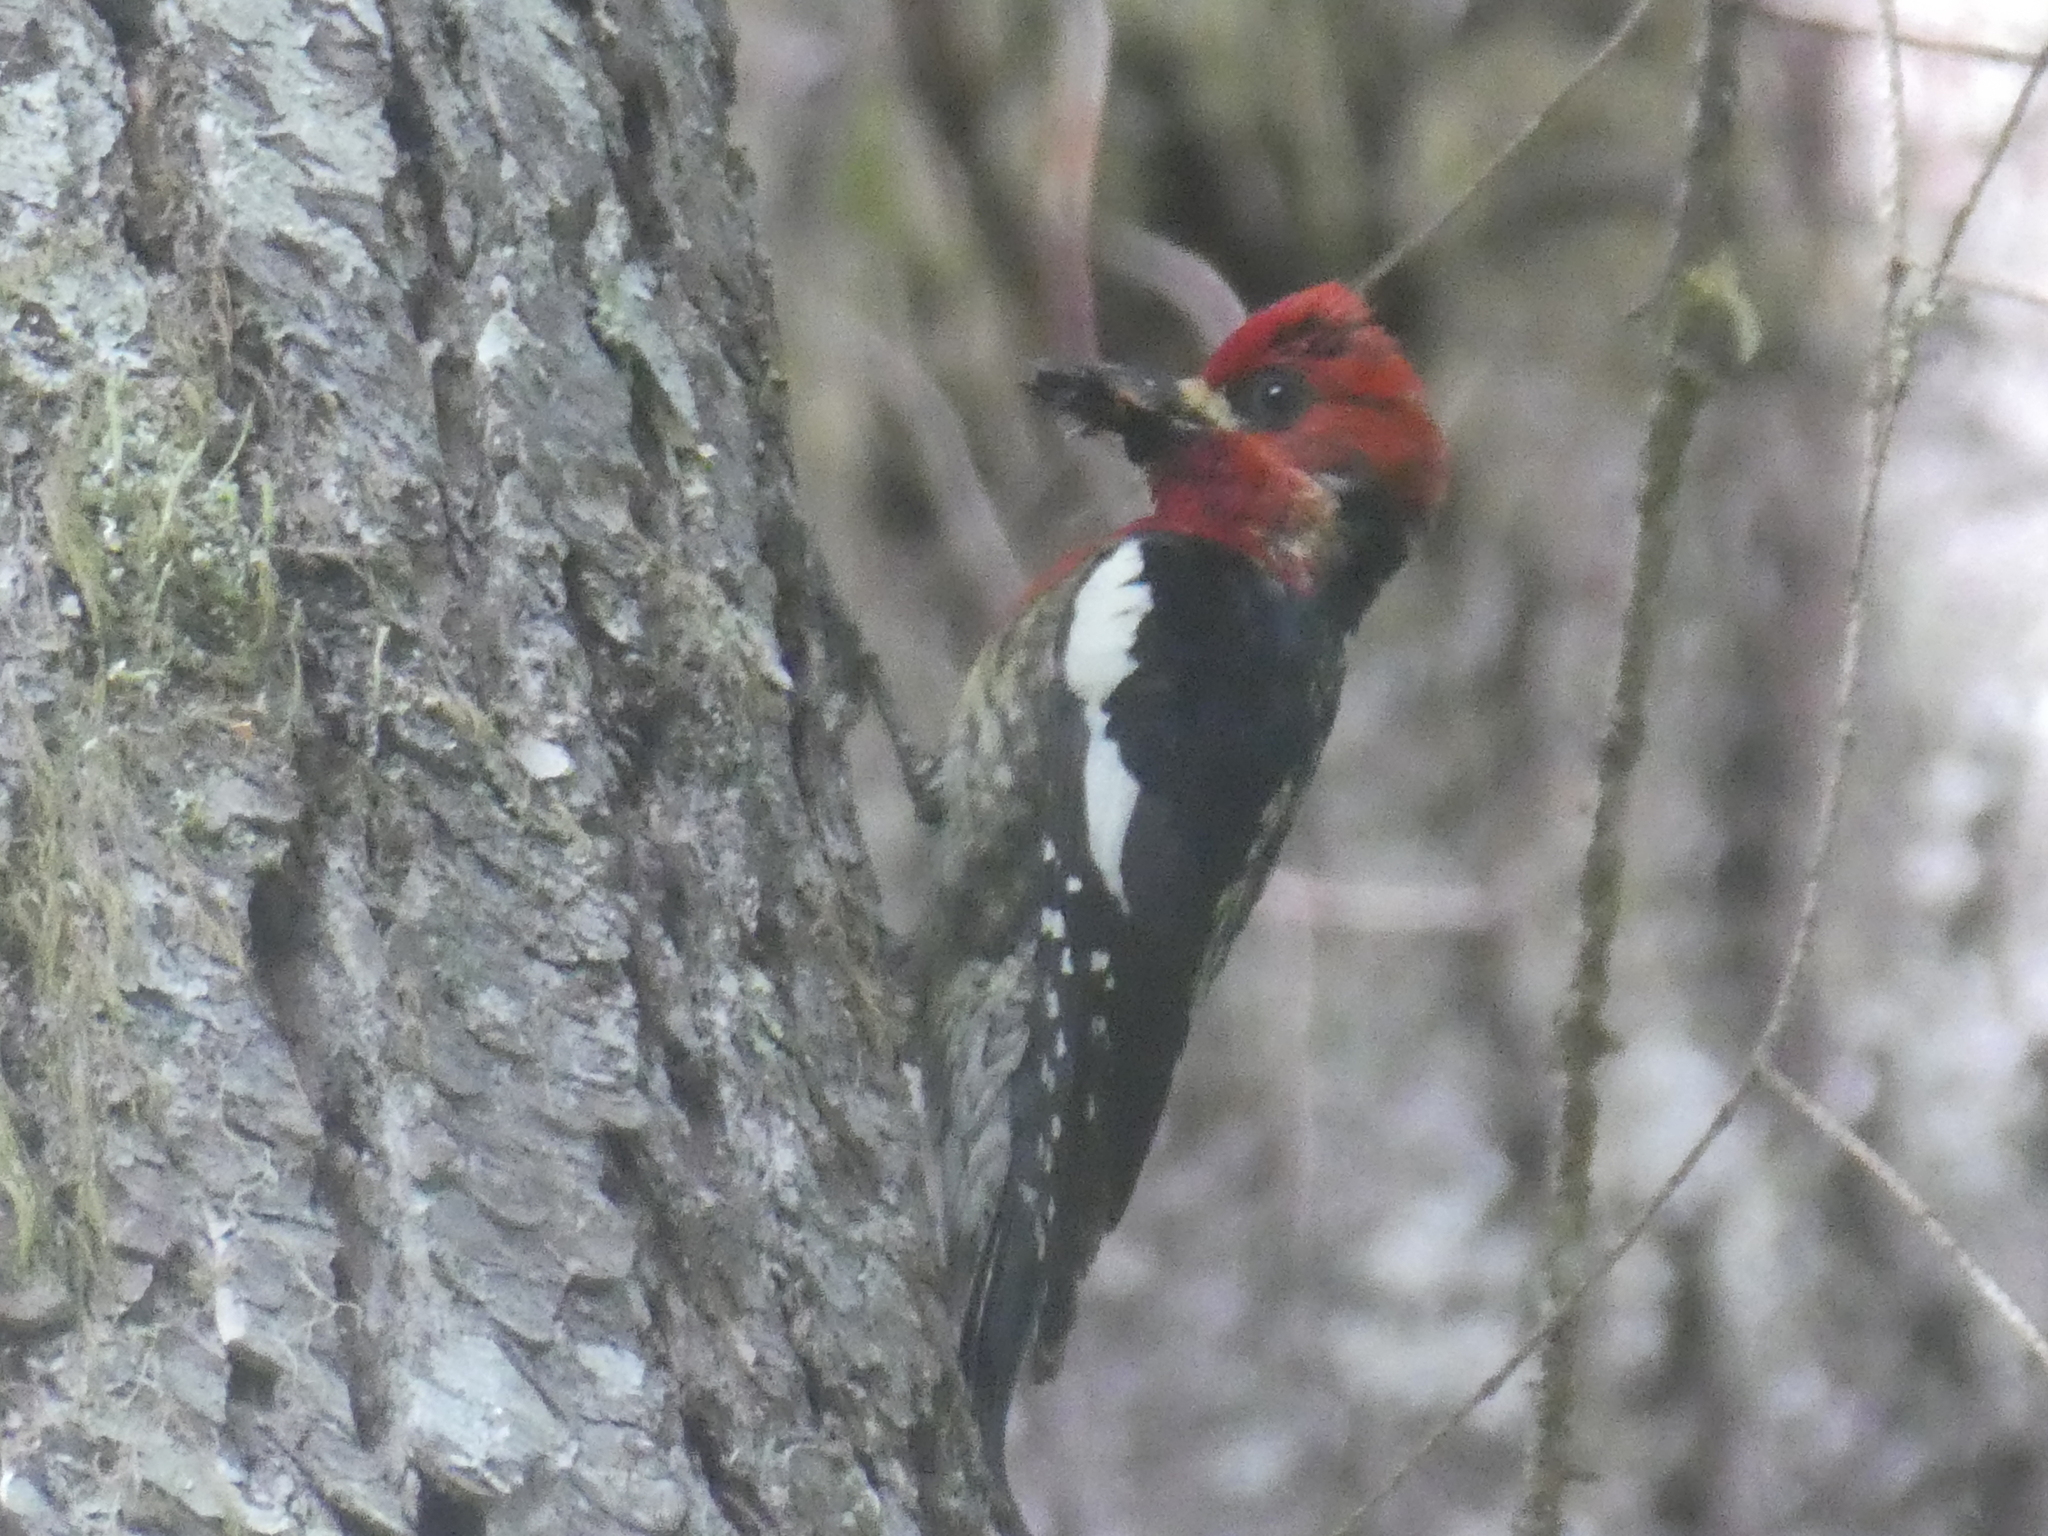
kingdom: Animalia
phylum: Chordata
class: Aves
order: Piciformes
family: Picidae
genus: Sphyrapicus
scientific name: Sphyrapicus ruber
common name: Red-breasted sapsucker
